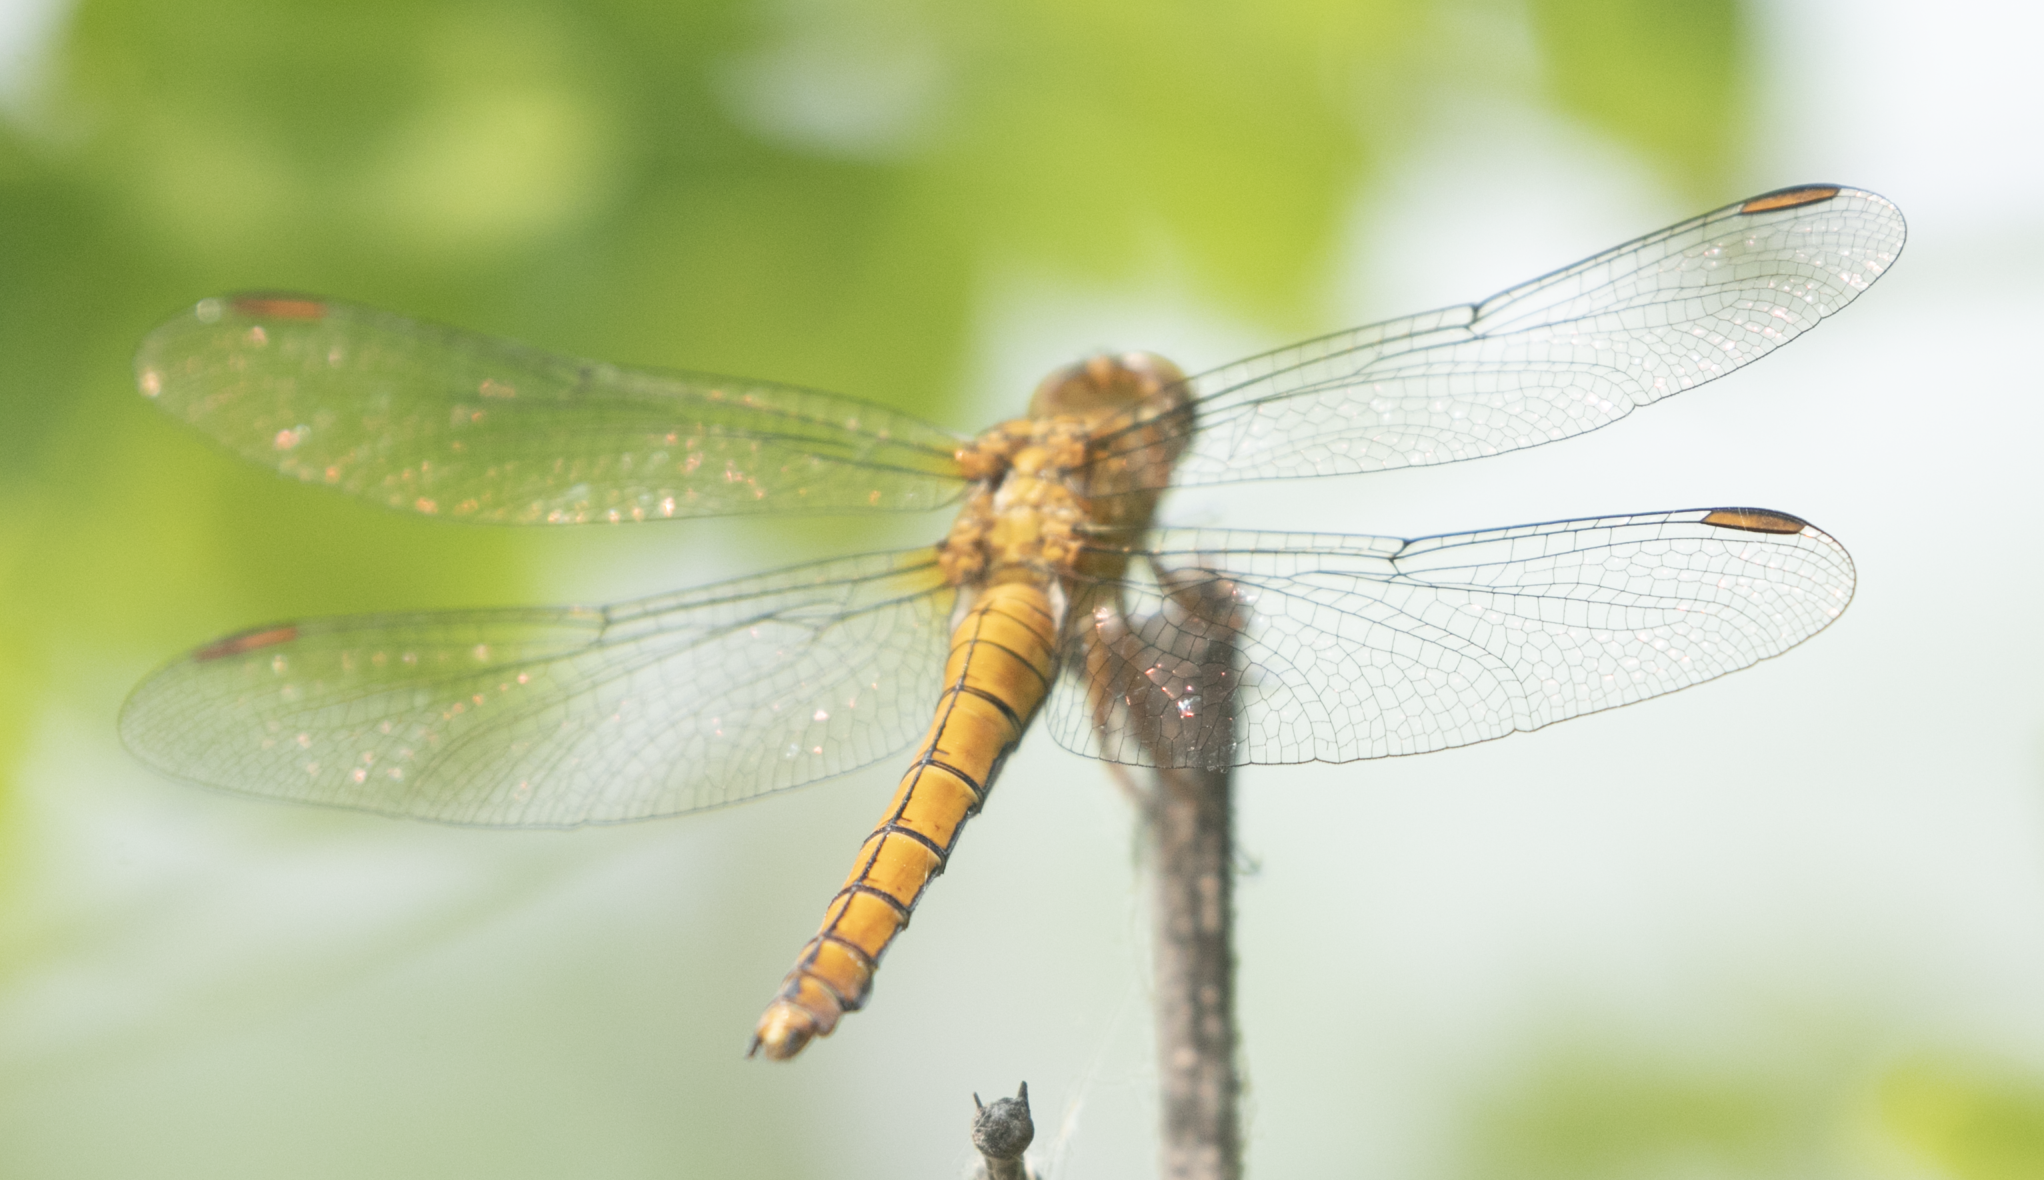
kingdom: Animalia
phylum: Arthropoda
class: Insecta
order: Odonata
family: Libellulidae
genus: Orthetrum
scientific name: Orthetrum coerulescens
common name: Keeled skimmer
